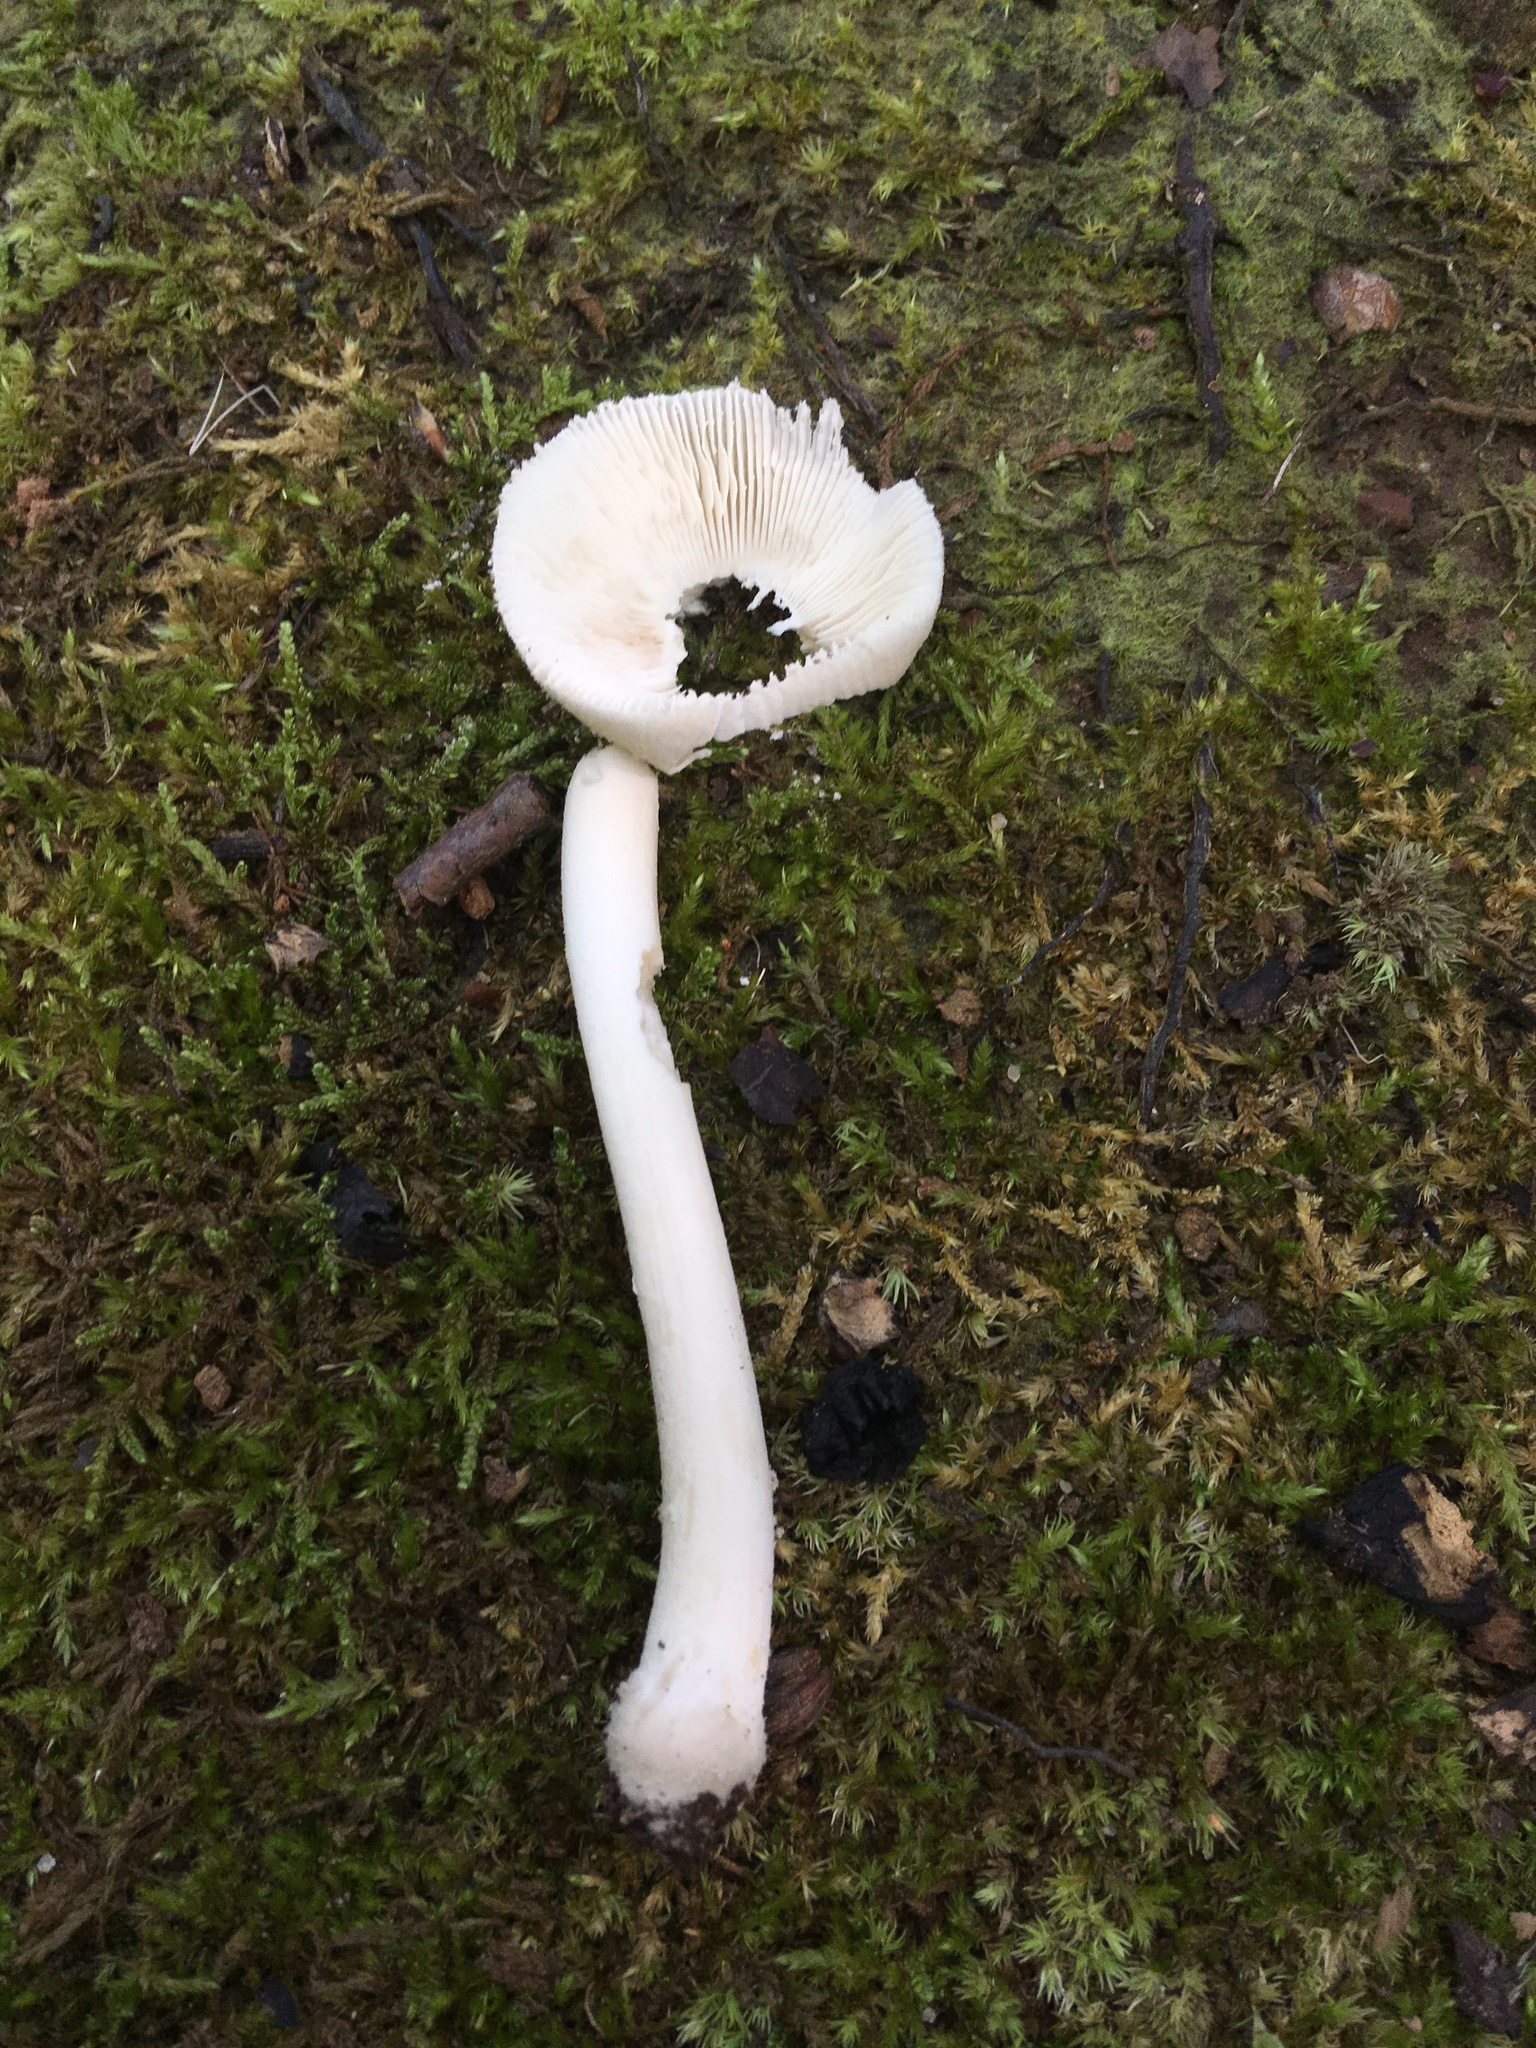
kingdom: Fungi
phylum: Basidiomycota
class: Agaricomycetes
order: Agaricales
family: Amanitaceae
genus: Amanita
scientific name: Amanita farinosa
